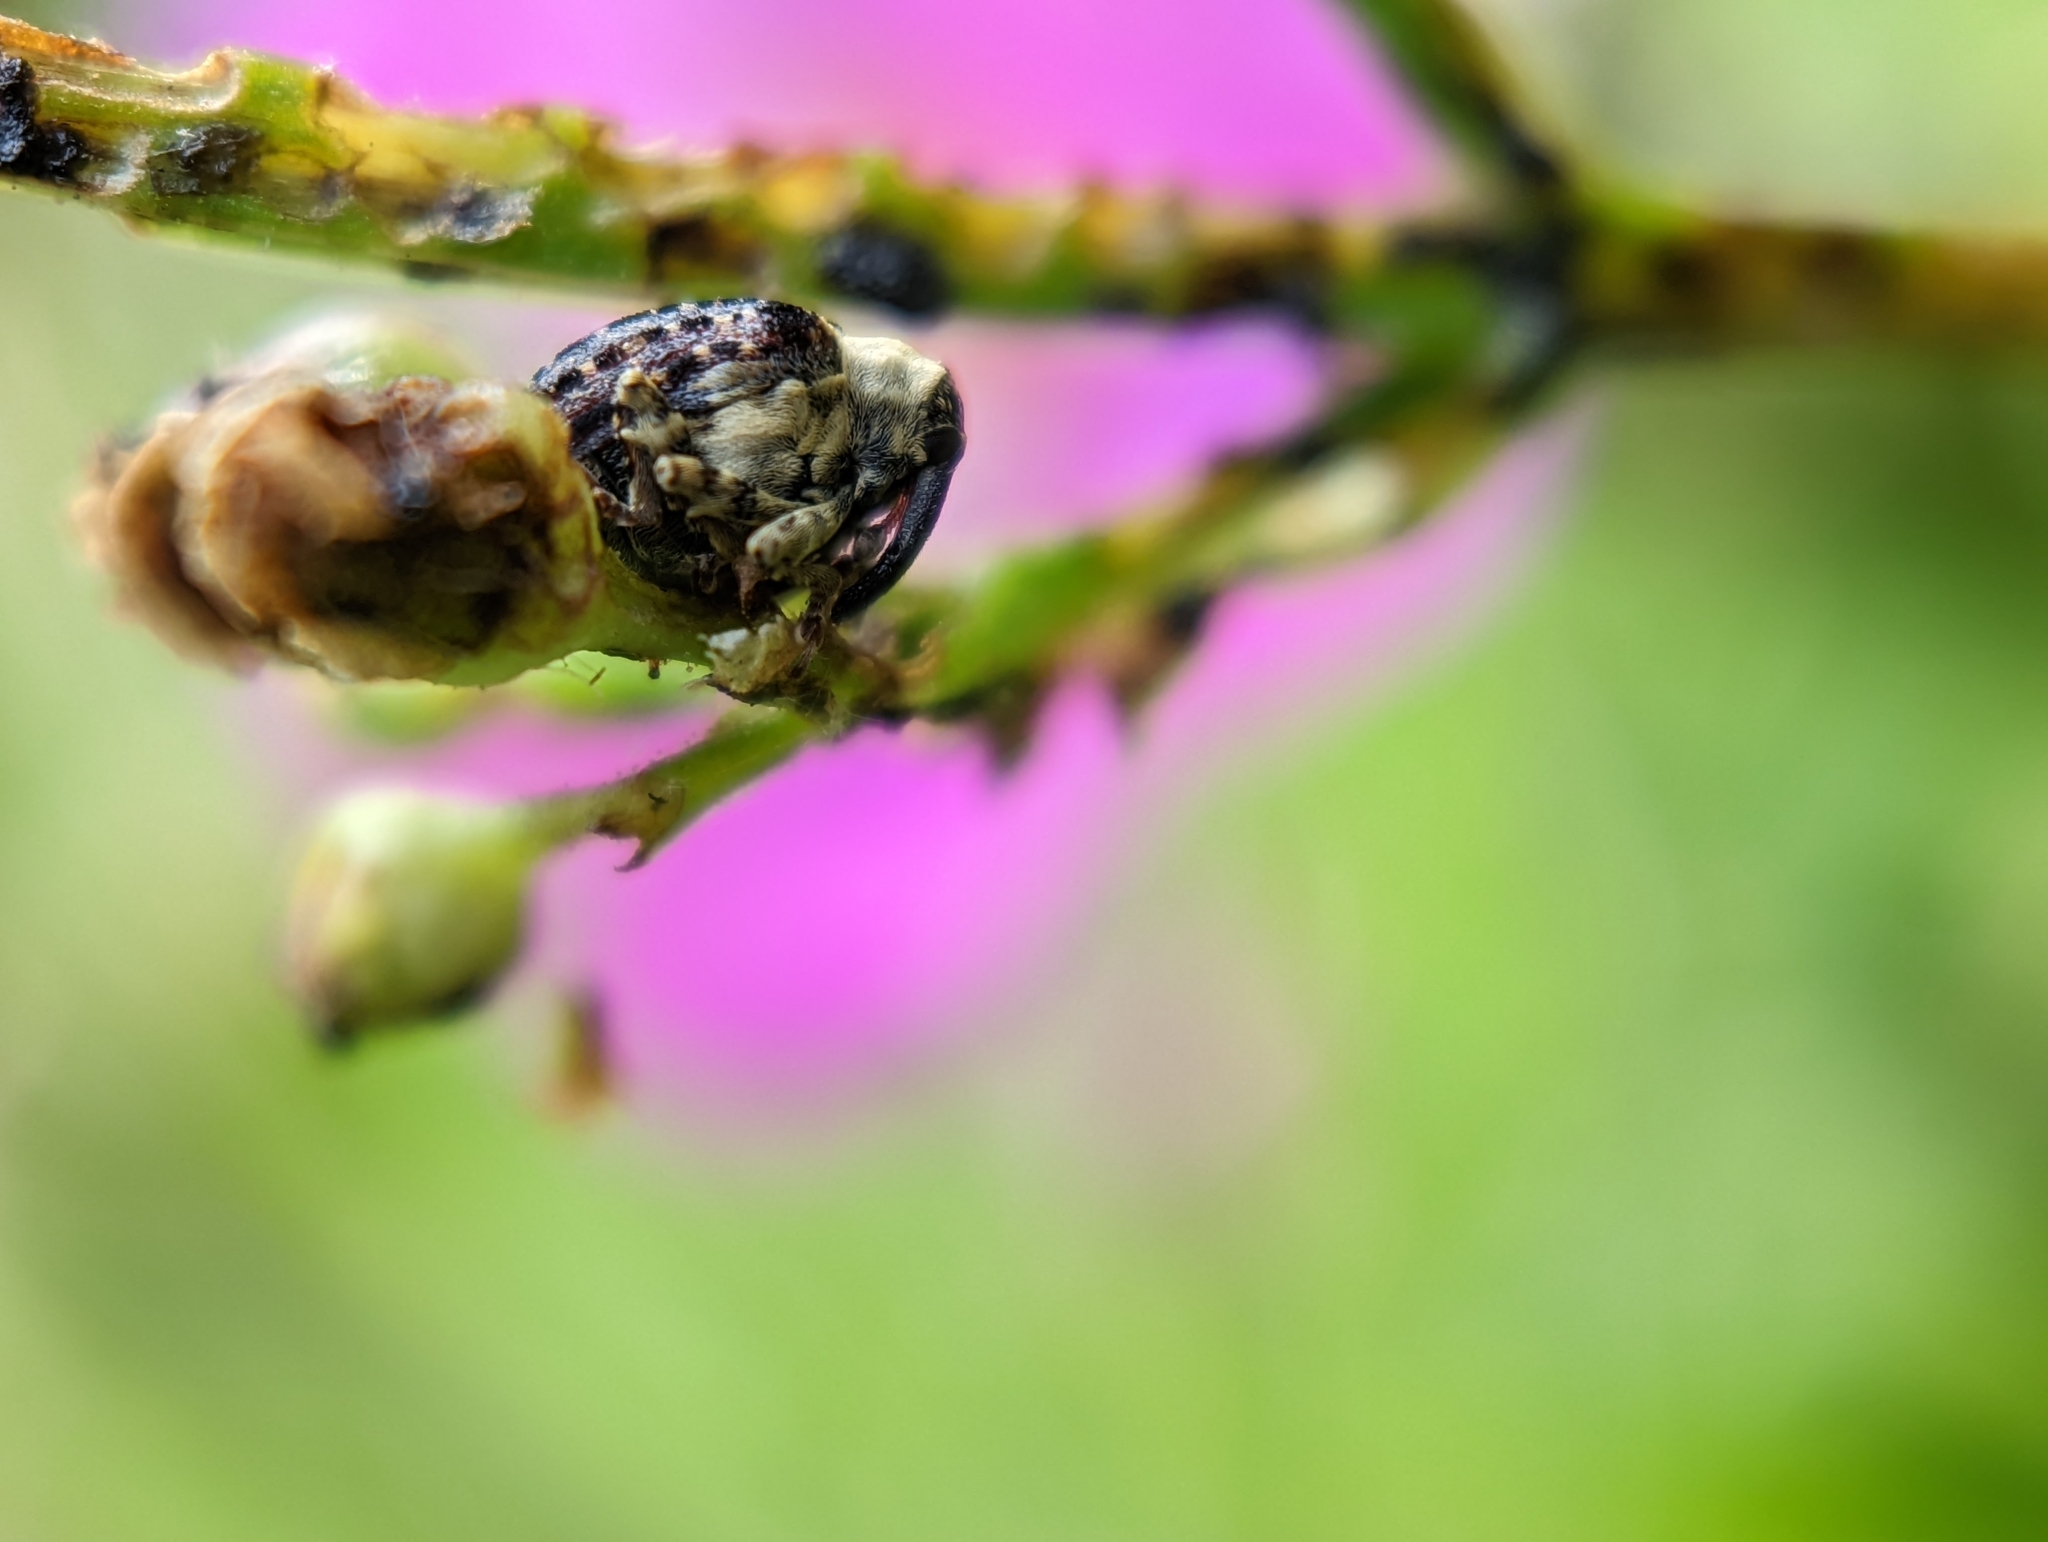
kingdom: Animalia
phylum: Arthropoda
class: Insecta
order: Coleoptera
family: Curculionidae
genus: Cionus
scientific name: Cionus scrophulariae
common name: Common figwort weevil
